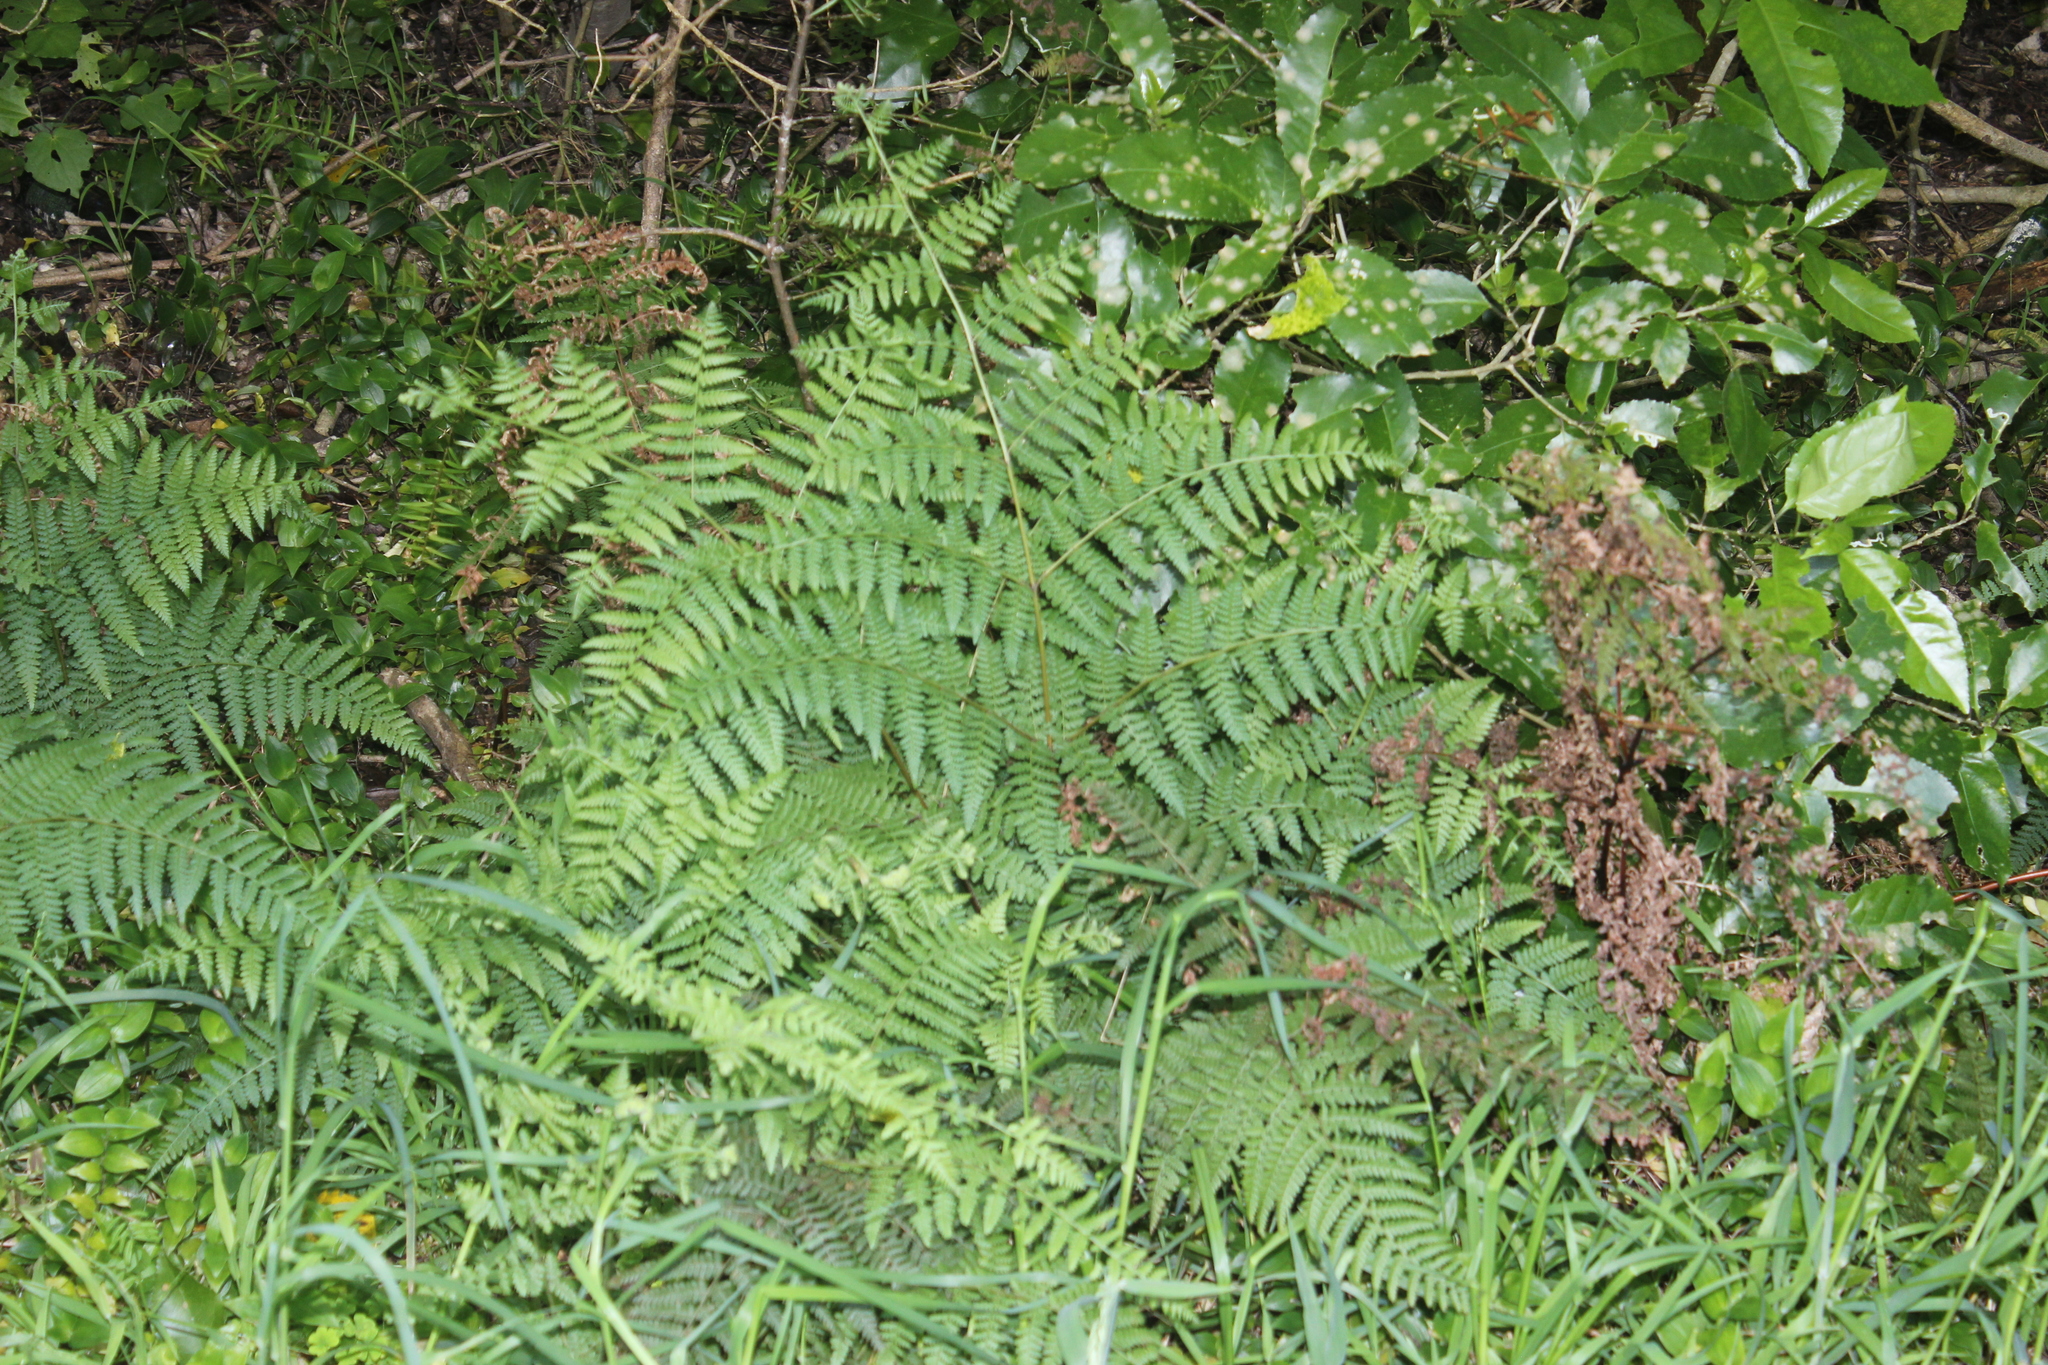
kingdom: Plantae
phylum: Tracheophyta
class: Polypodiopsida
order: Polypodiales
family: Dennstaedtiaceae
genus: Hypolepis
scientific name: Hypolepis ambigua
